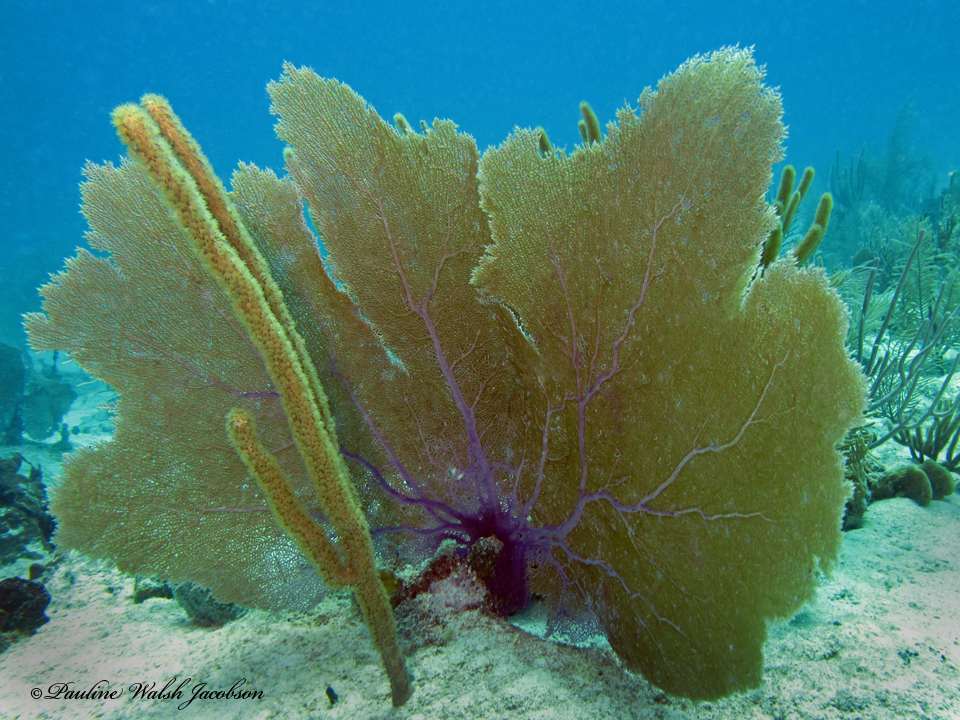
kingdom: Animalia
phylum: Cnidaria
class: Anthozoa
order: Malacalcyonacea
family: Gorgoniidae
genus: Gorgonia
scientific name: Gorgonia ventalina
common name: Common sea fan
